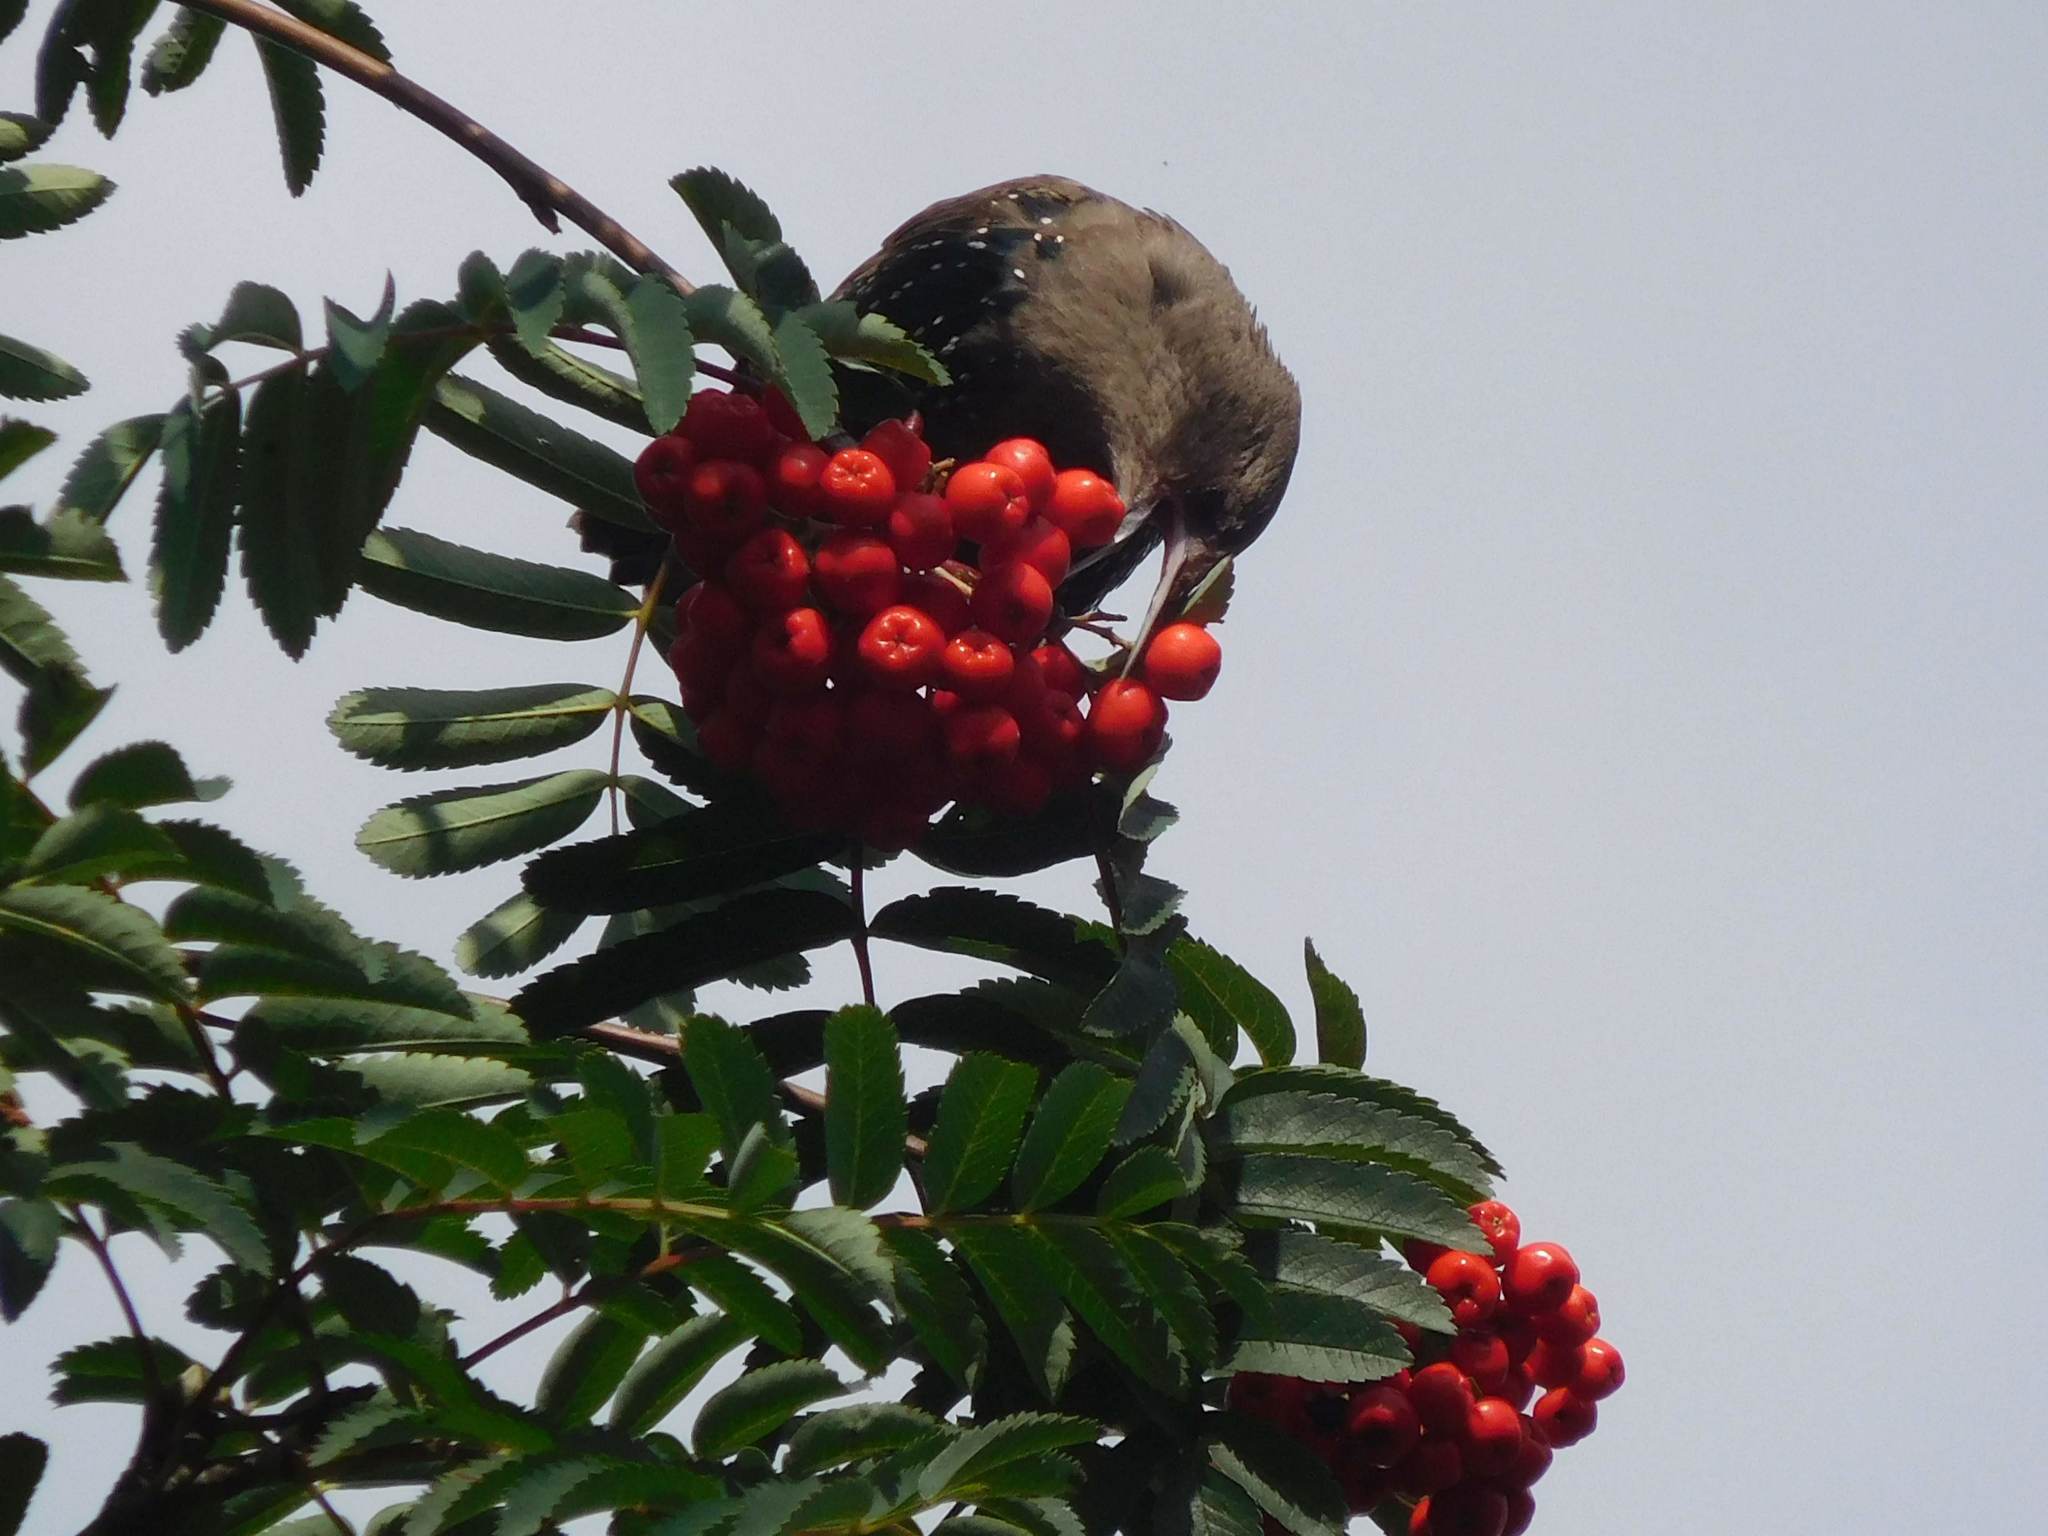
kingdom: Animalia
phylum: Chordata
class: Aves
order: Passeriformes
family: Sturnidae
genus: Sturnus
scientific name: Sturnus vulgaris
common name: Common starling
